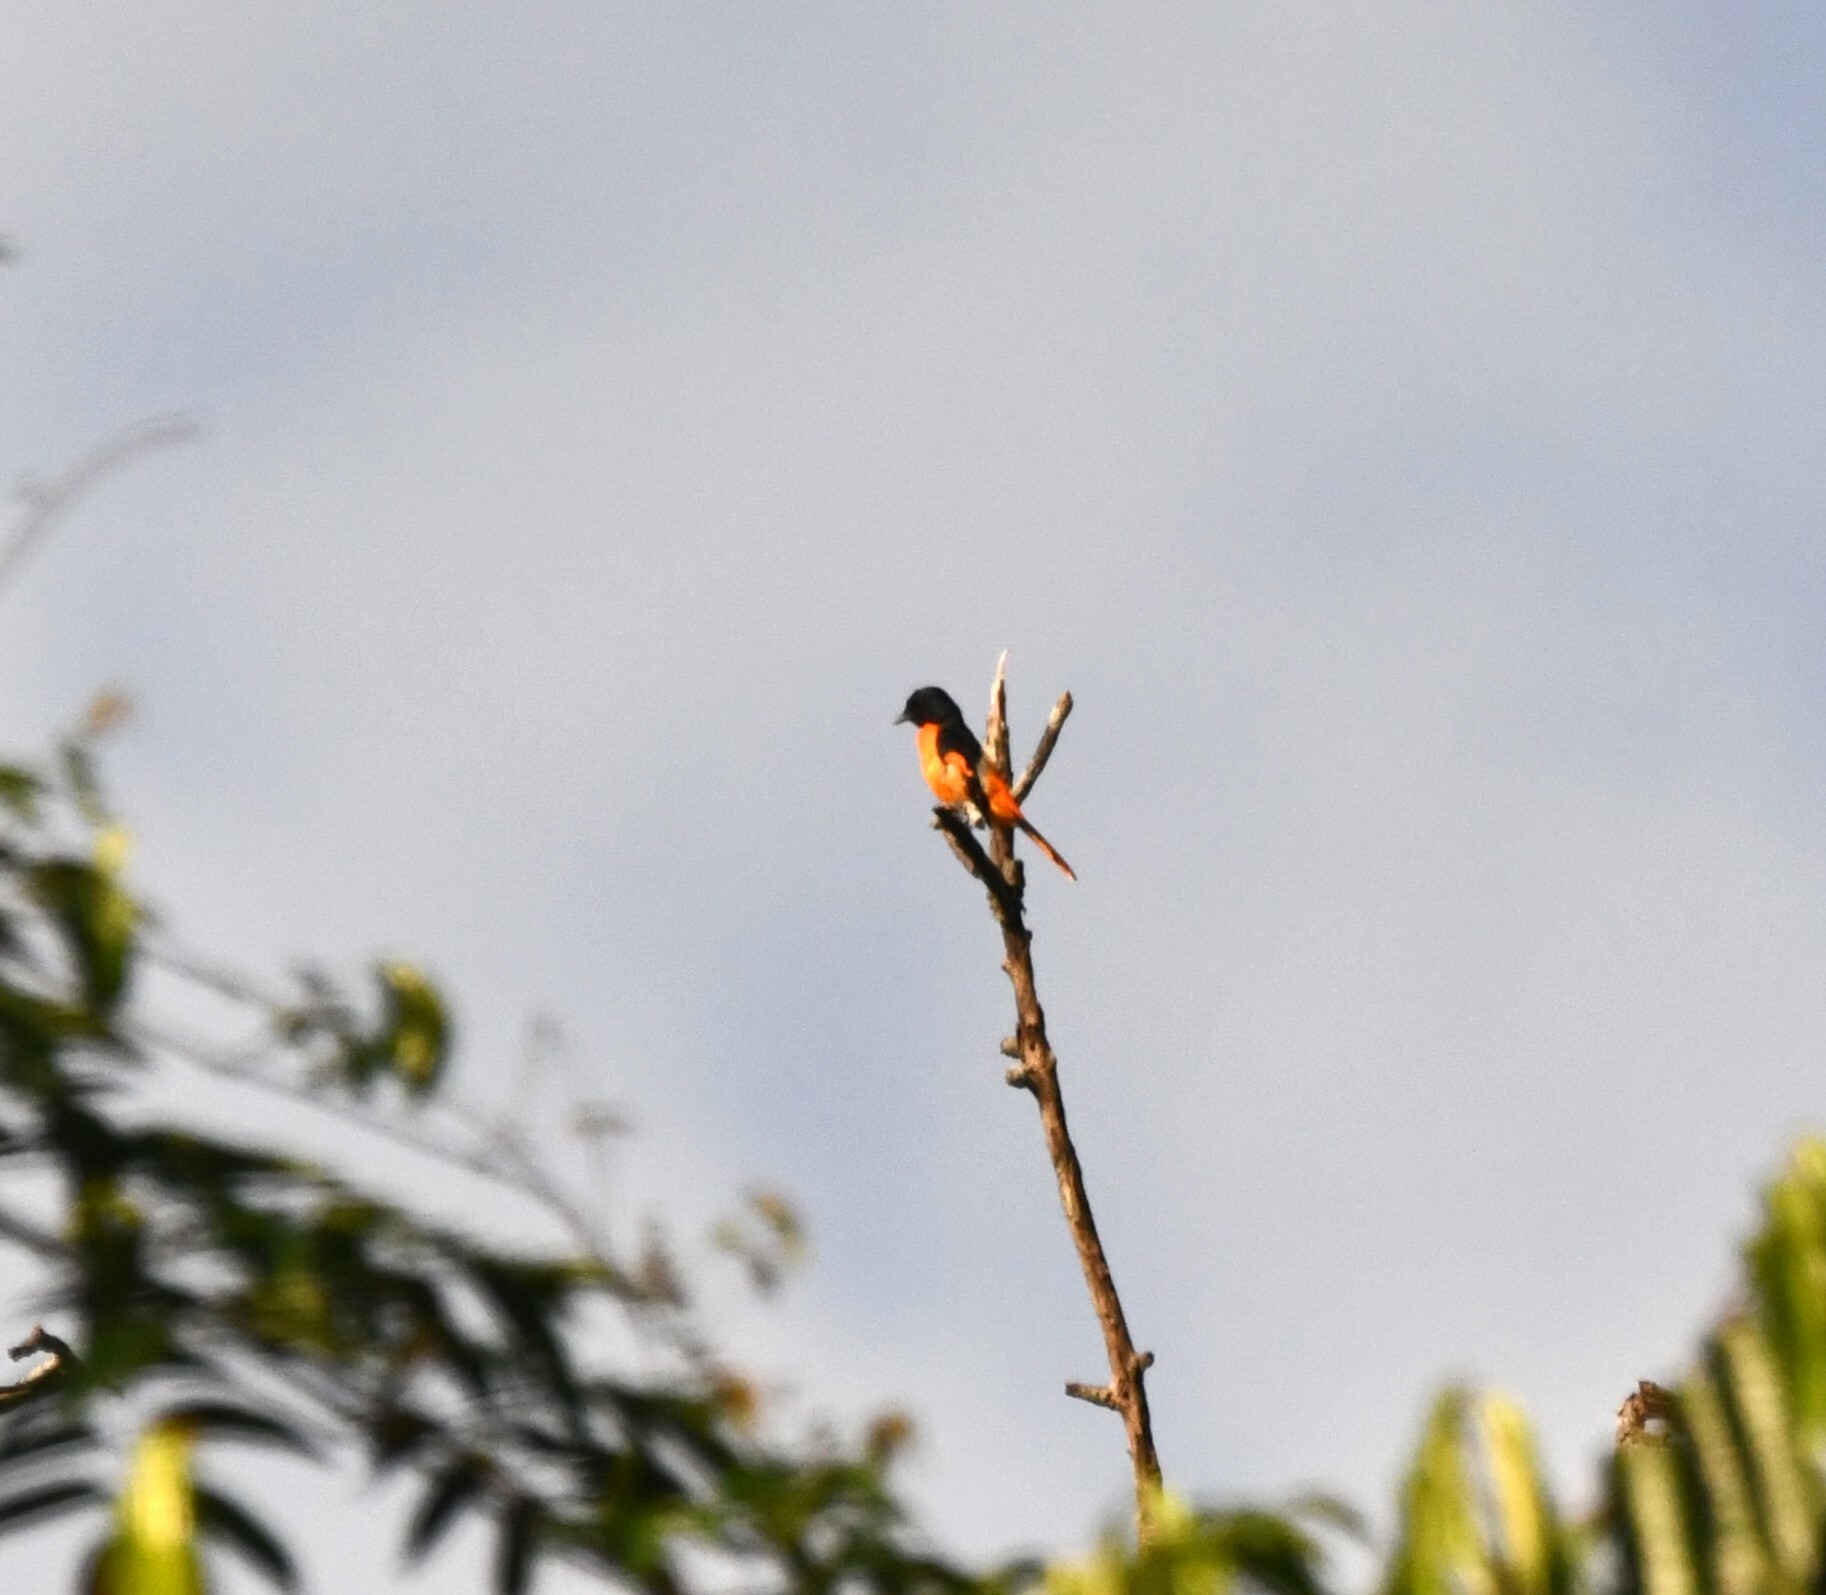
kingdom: Animalia
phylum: Chordata
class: Aves
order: Passeriformes
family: Campephagidae
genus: Pericrocotus
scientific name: Pericrocotus flammeus
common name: Orange minivet
